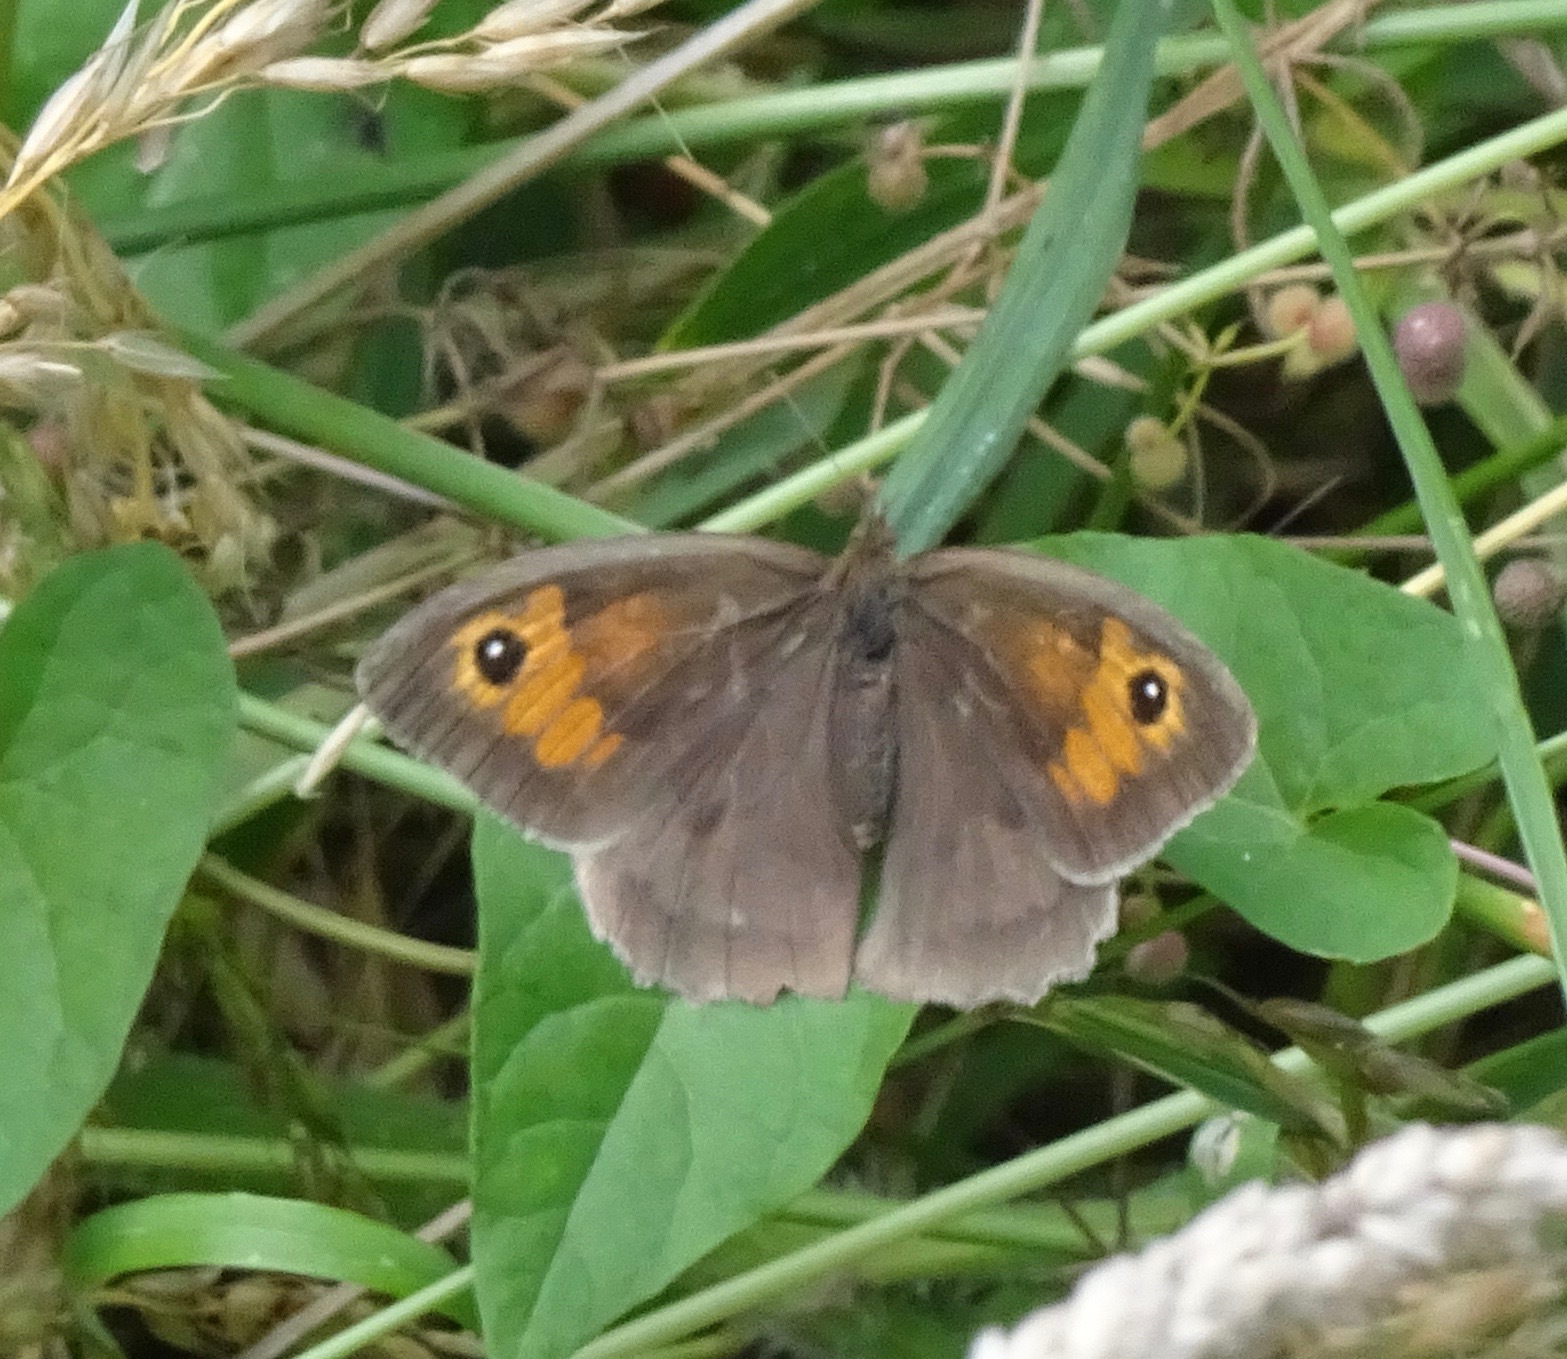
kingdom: Animalia
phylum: Arthropoda
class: Insecta
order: Lepidoptera
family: Nymphalidae
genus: Maniola
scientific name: Maniola jurtina
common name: Meadow brown
